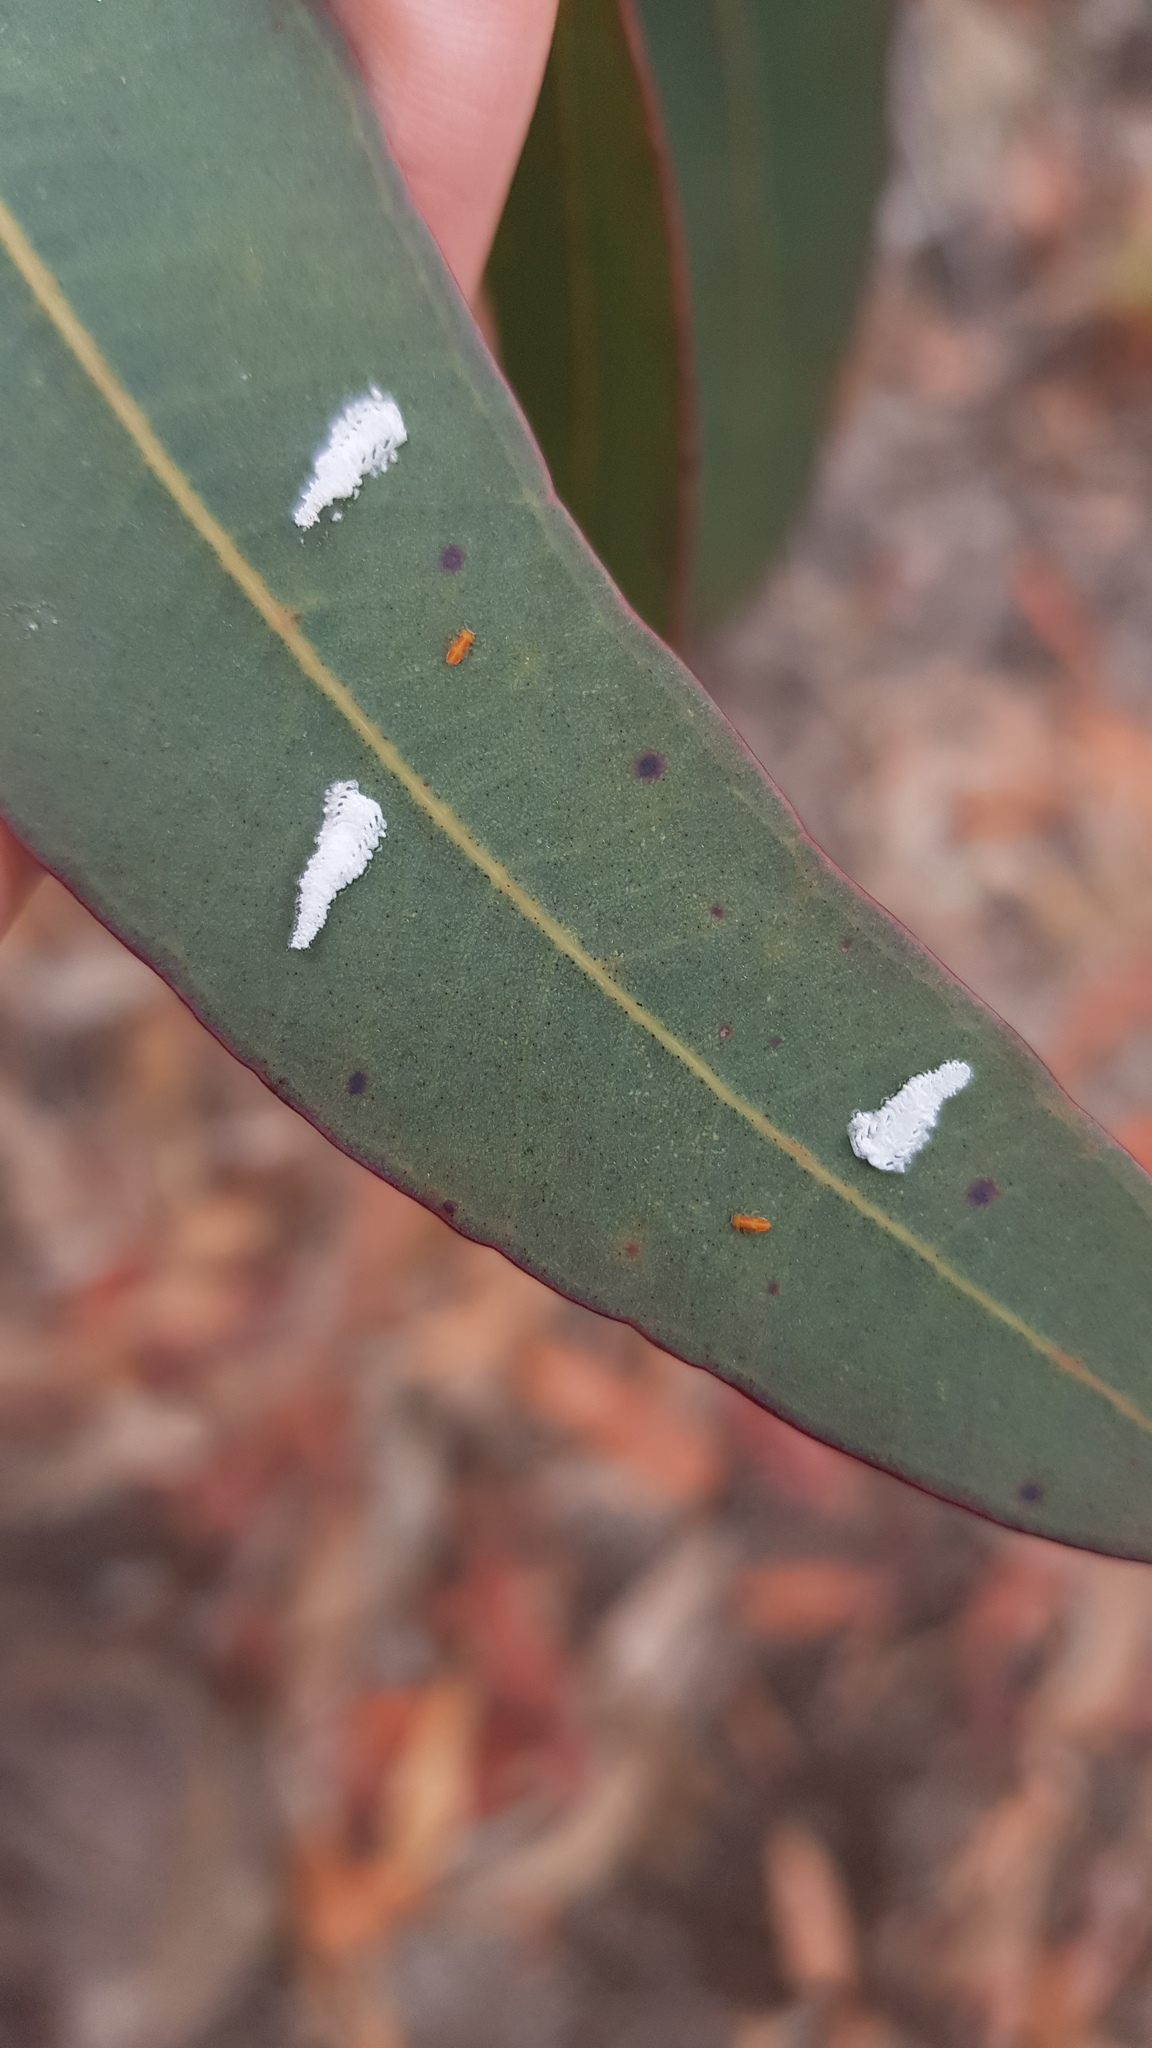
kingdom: Animalia
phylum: Arthropoda
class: Insecta
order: Hemiptera
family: Aphalaridae
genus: Eucalyptolyma
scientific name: Eucalyptolyma maideni
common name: Spotted gum lerp psyllid
